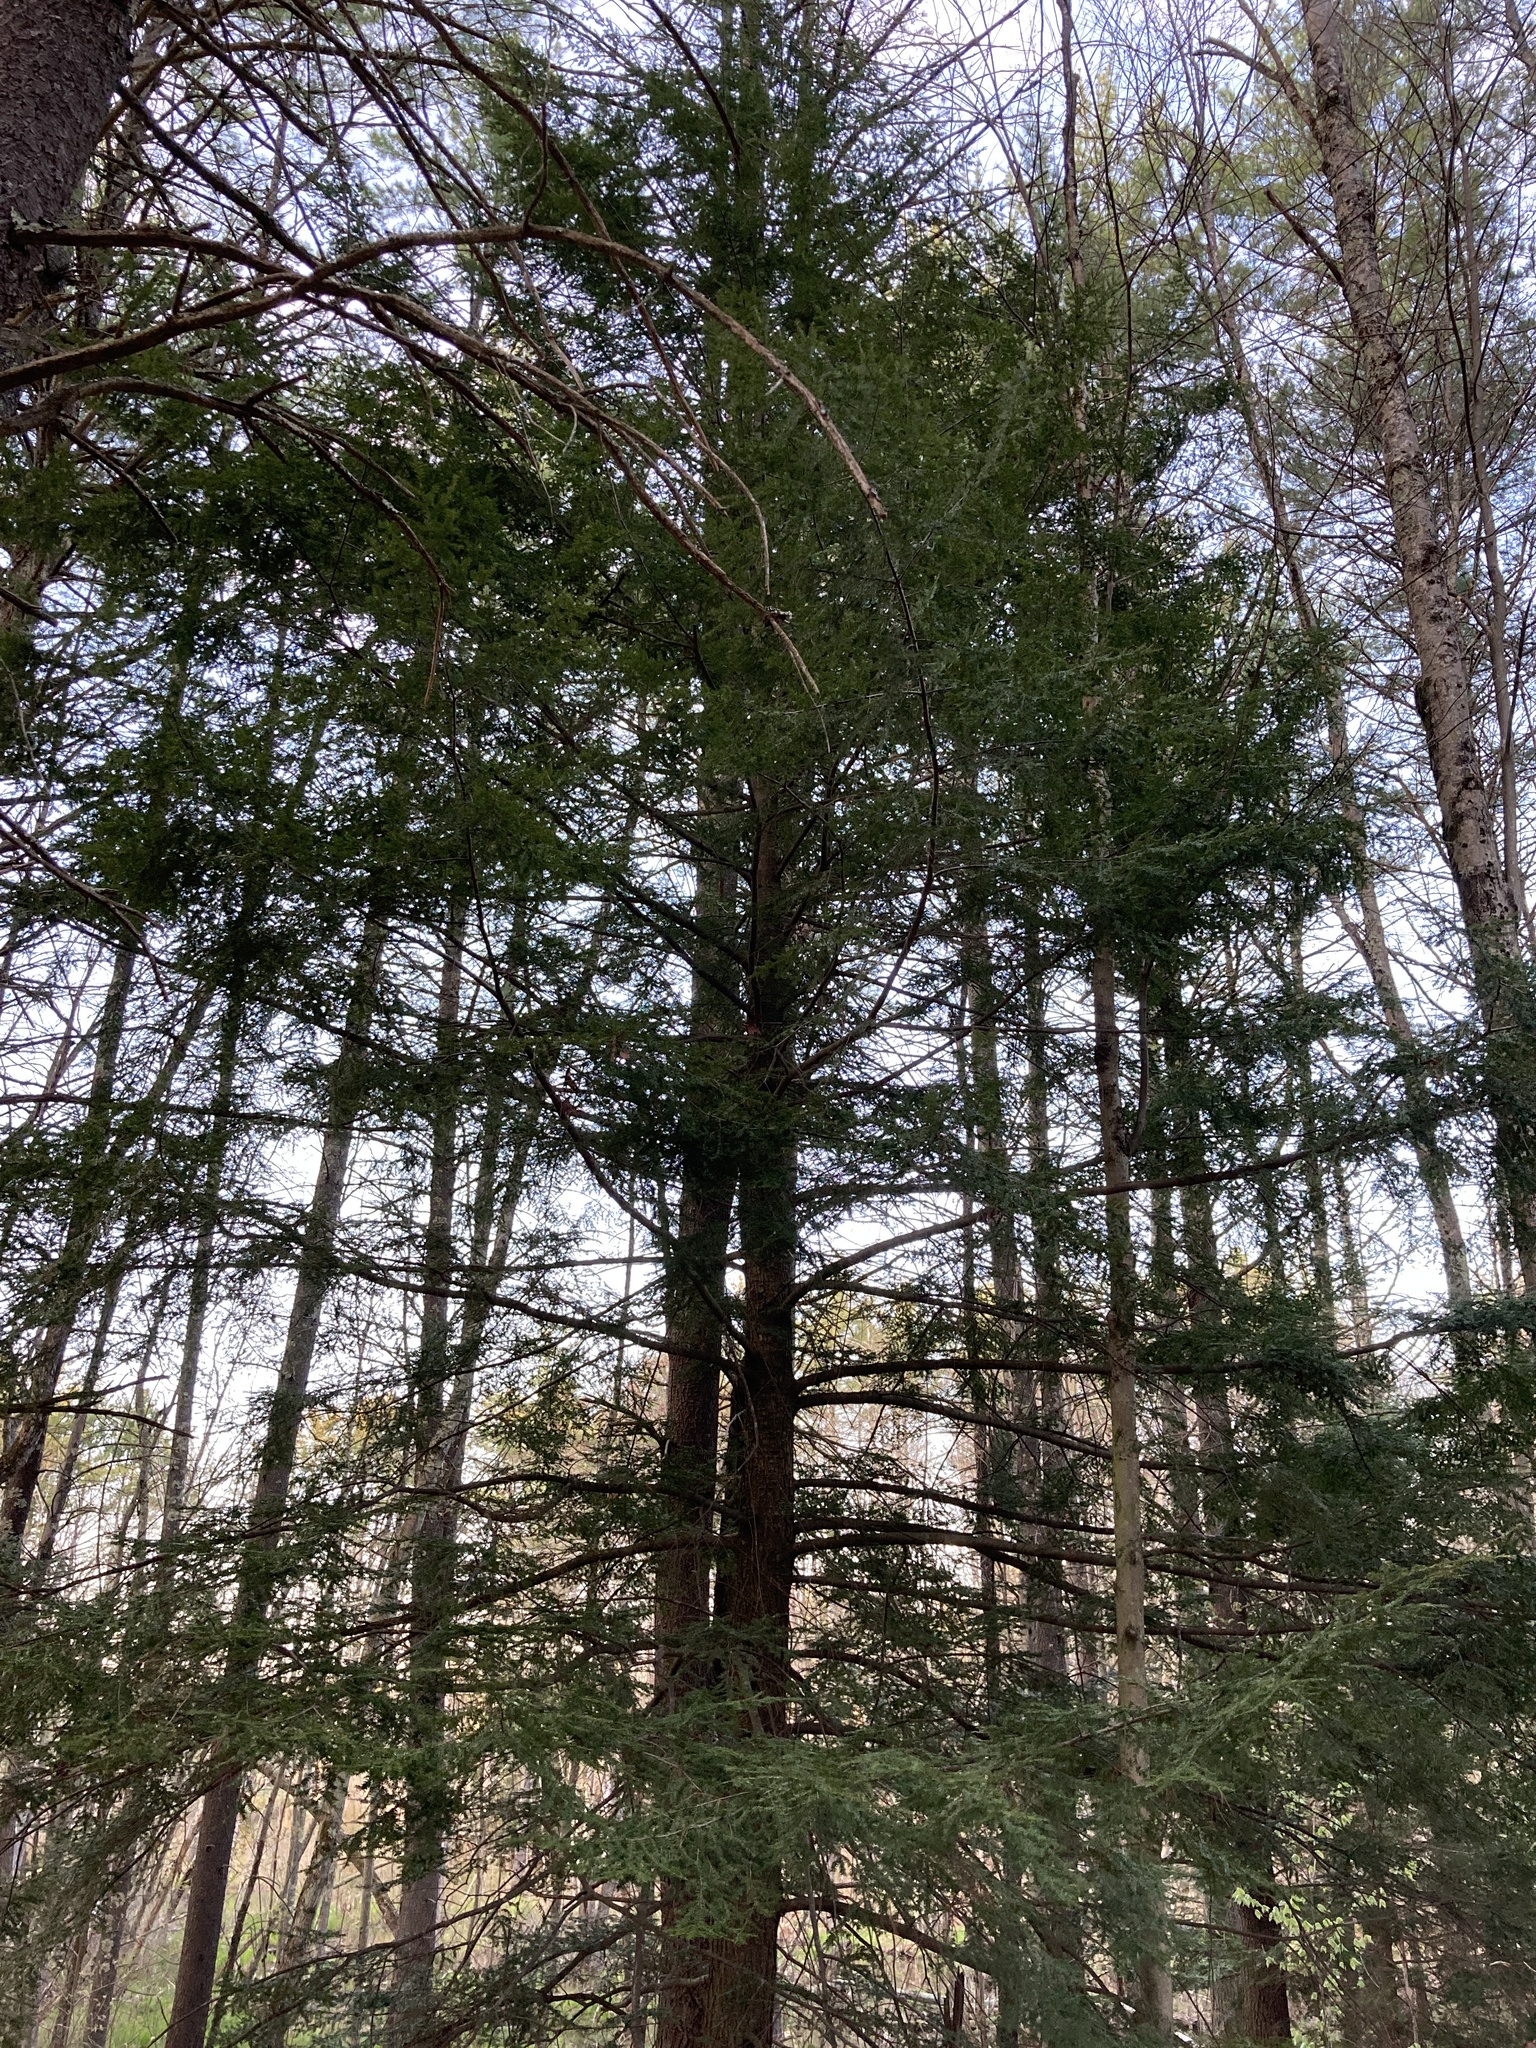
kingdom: Plantae
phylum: Tracheophyta
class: Pinopsida
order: Pinales
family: Pinaceae
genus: Tsuga
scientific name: Tsuga canadensis
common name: Eastern hemlock
